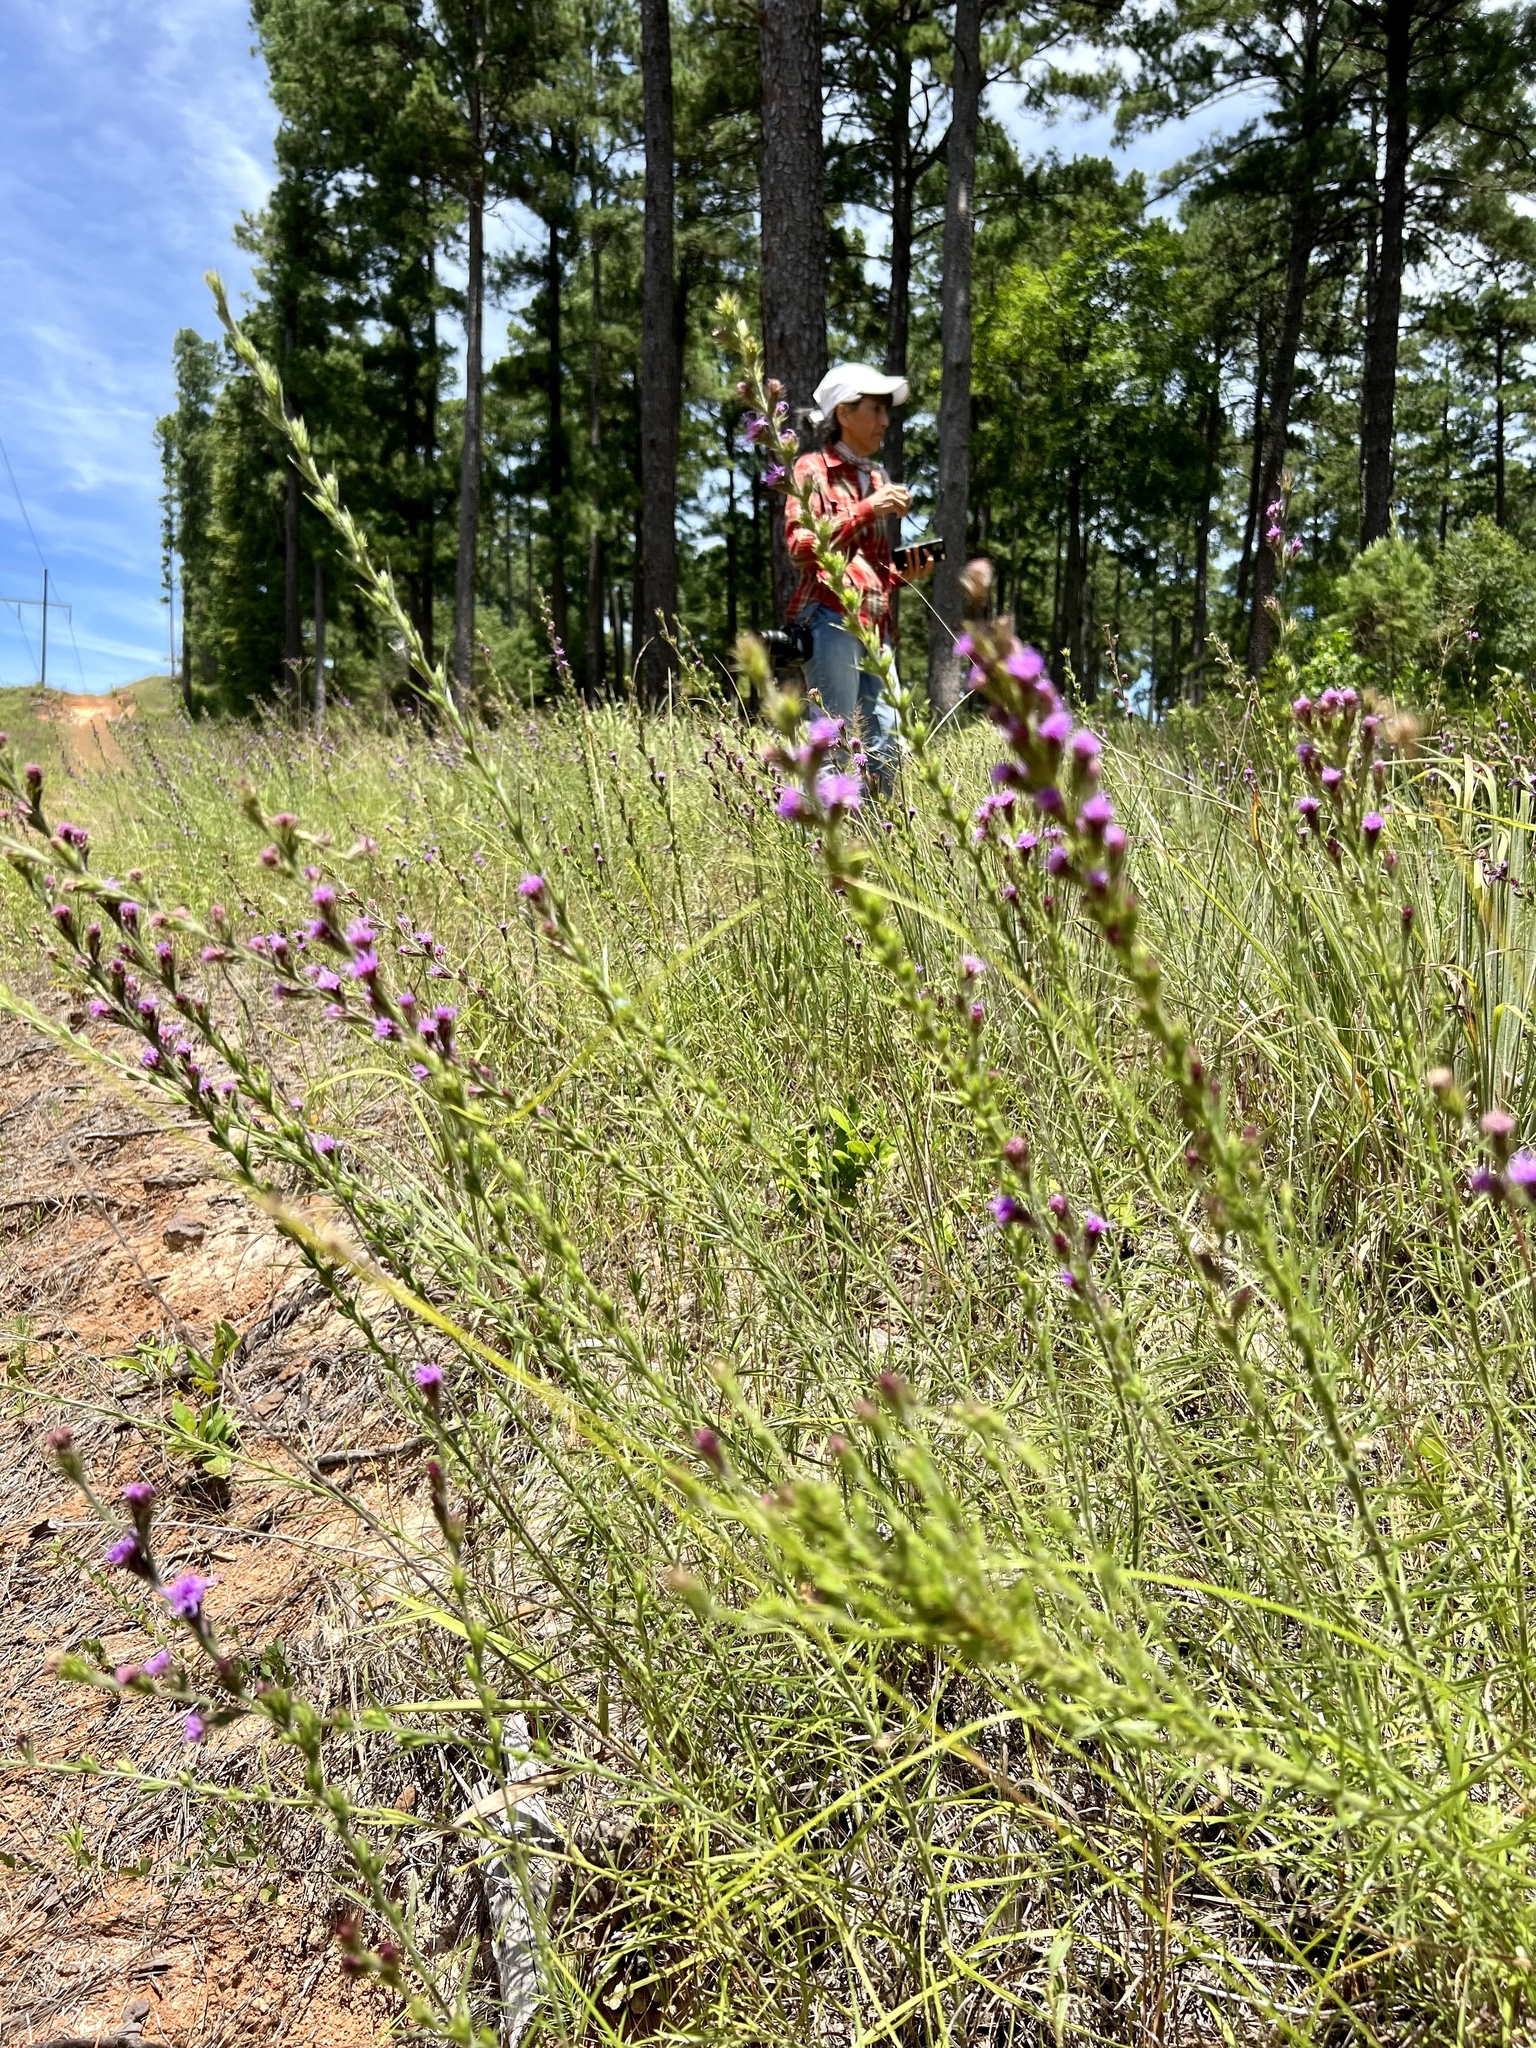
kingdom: Plantae
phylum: Tracheophyta
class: Magnoliopsida
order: Asterales
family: Asteraceae
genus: Liatris
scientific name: Liatris tenuis
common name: Shinner's gayfeather
